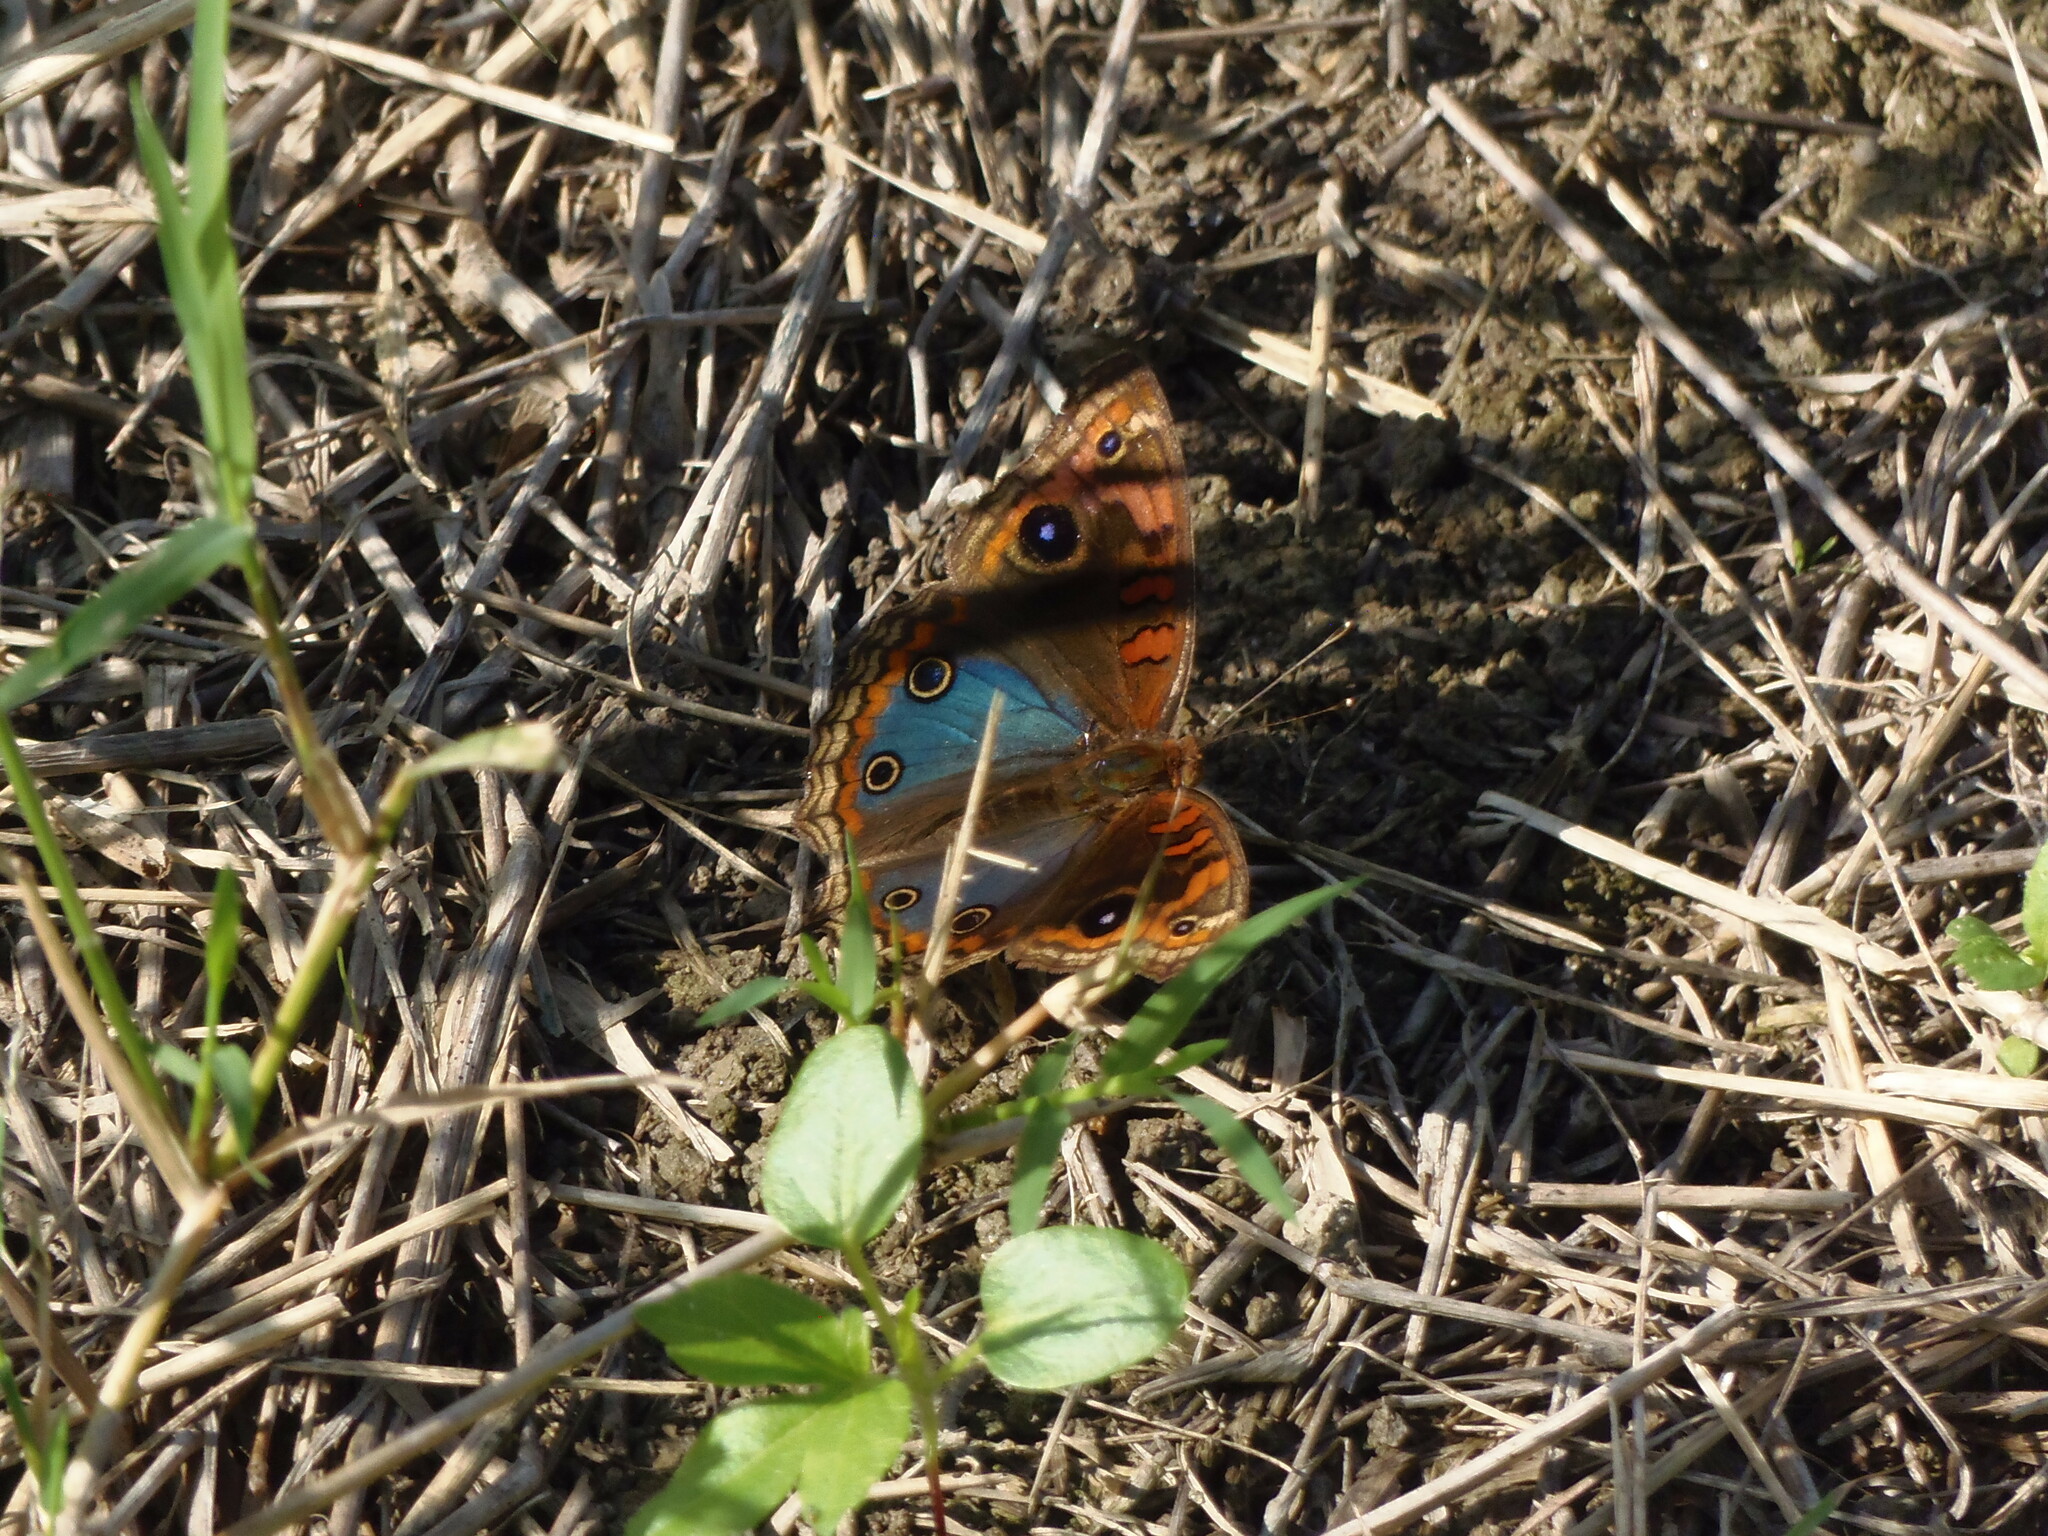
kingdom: Animalia
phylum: Arthropoda
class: Insecta
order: Lepidoptera
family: Nymphalidae
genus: Junonia
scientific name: Junonia evarete
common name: Black mangrove buckeye
